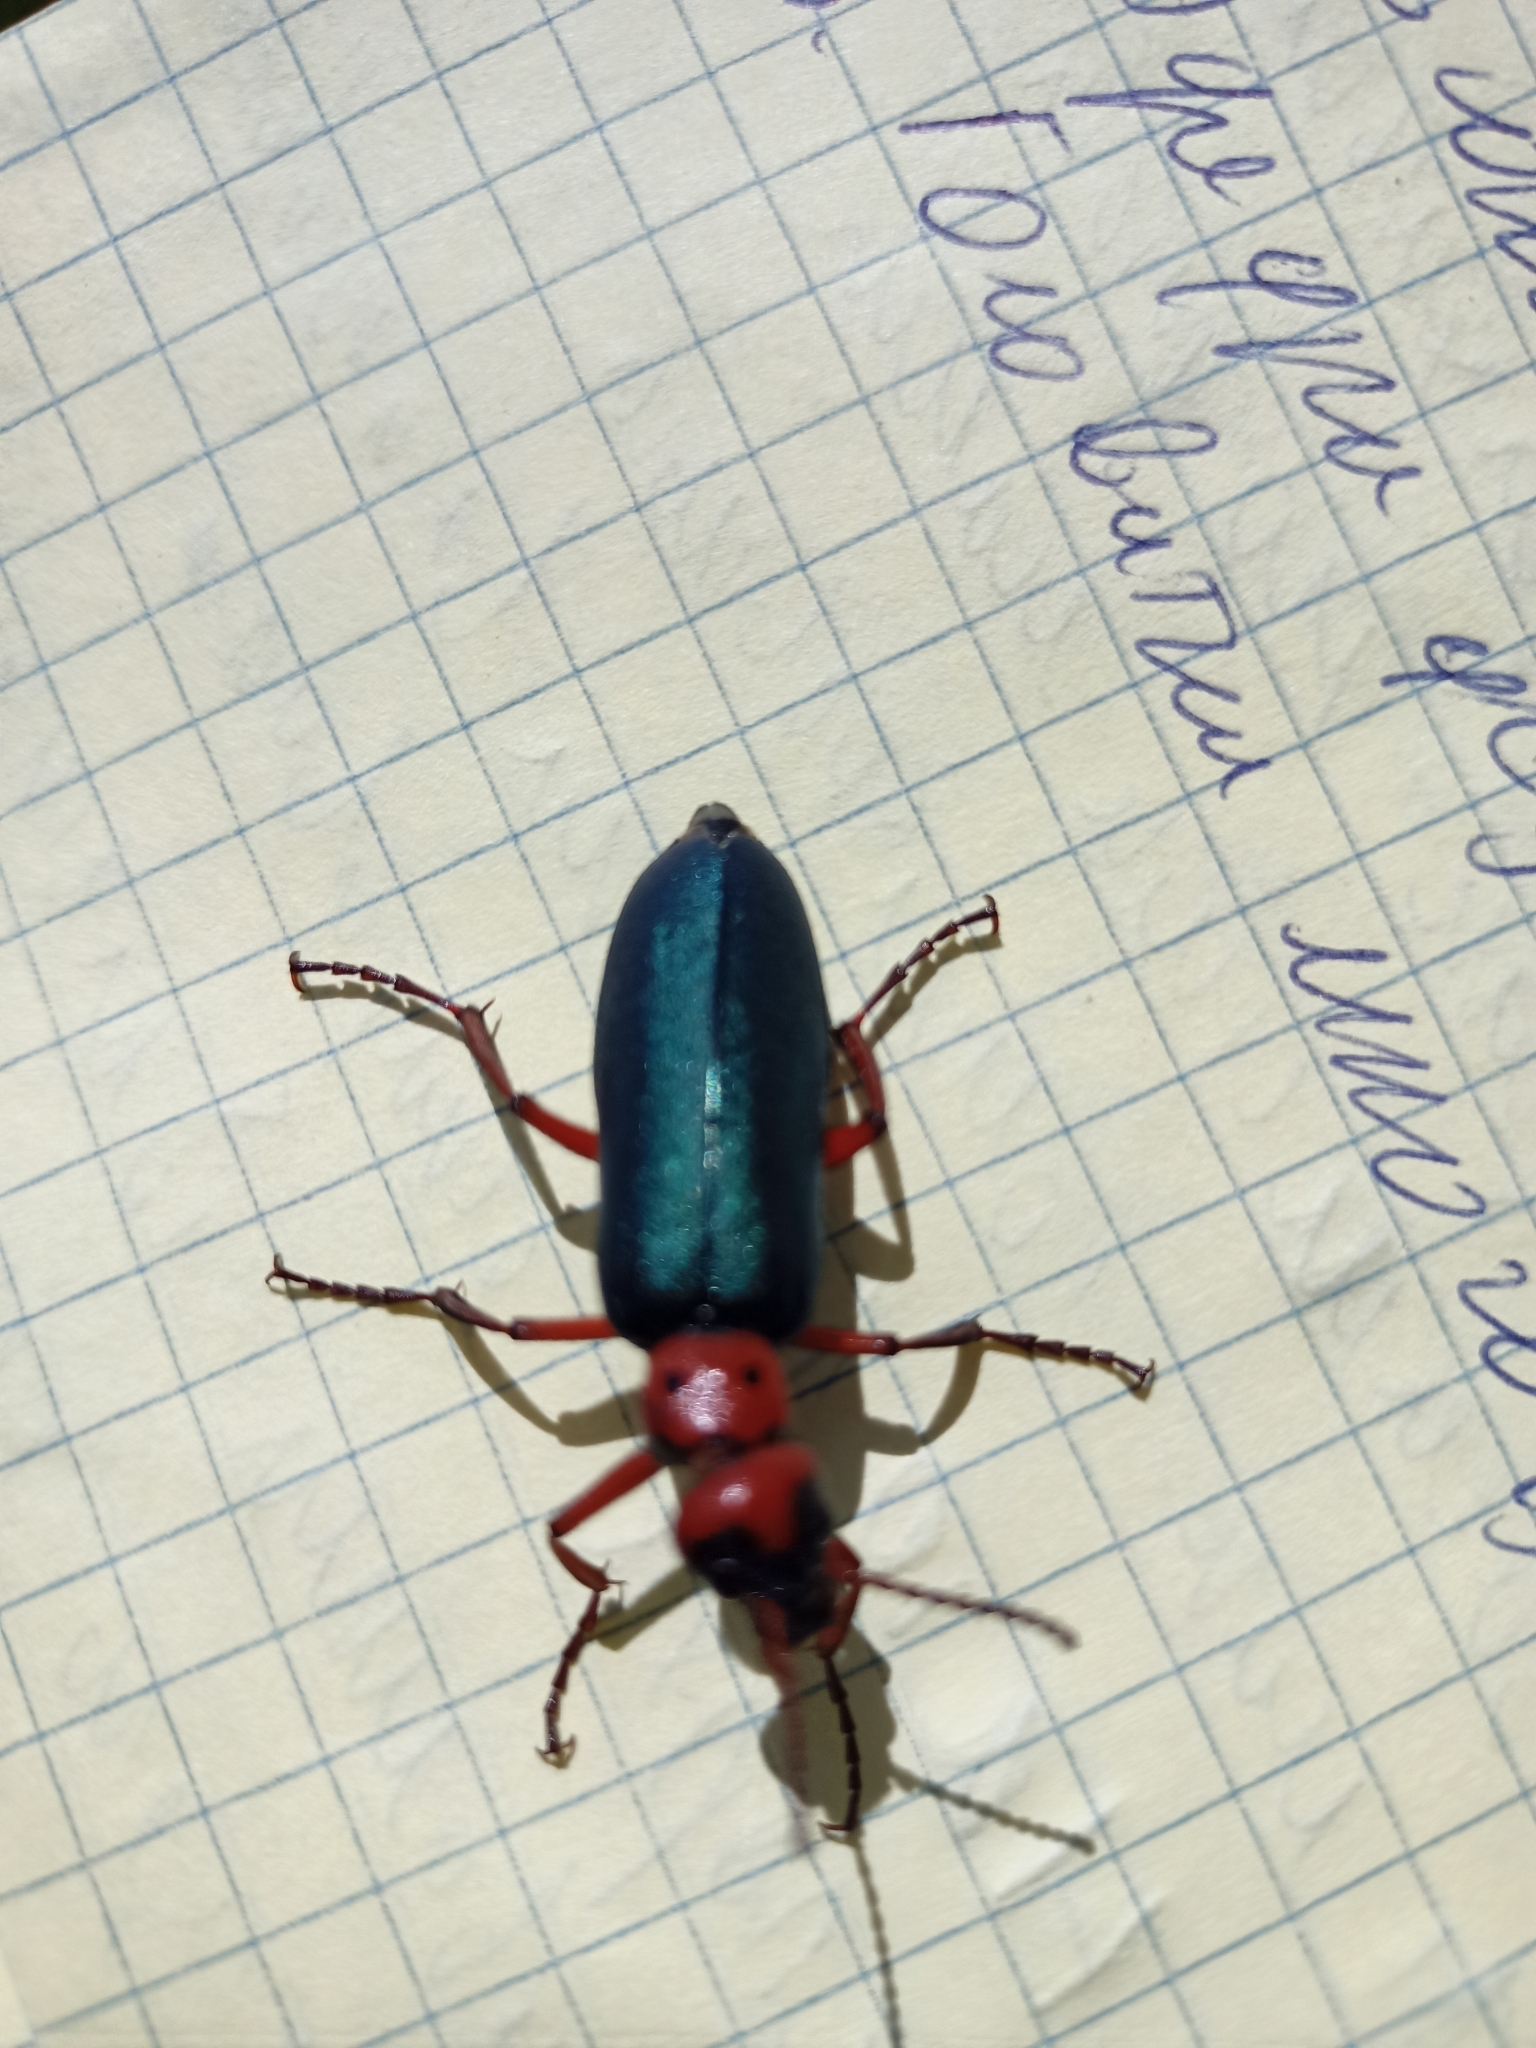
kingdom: Animalia
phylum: Arthropoda
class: Insecta
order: Coleoptera
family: Meloidae
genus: Muzimes
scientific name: Muzimes collaris
